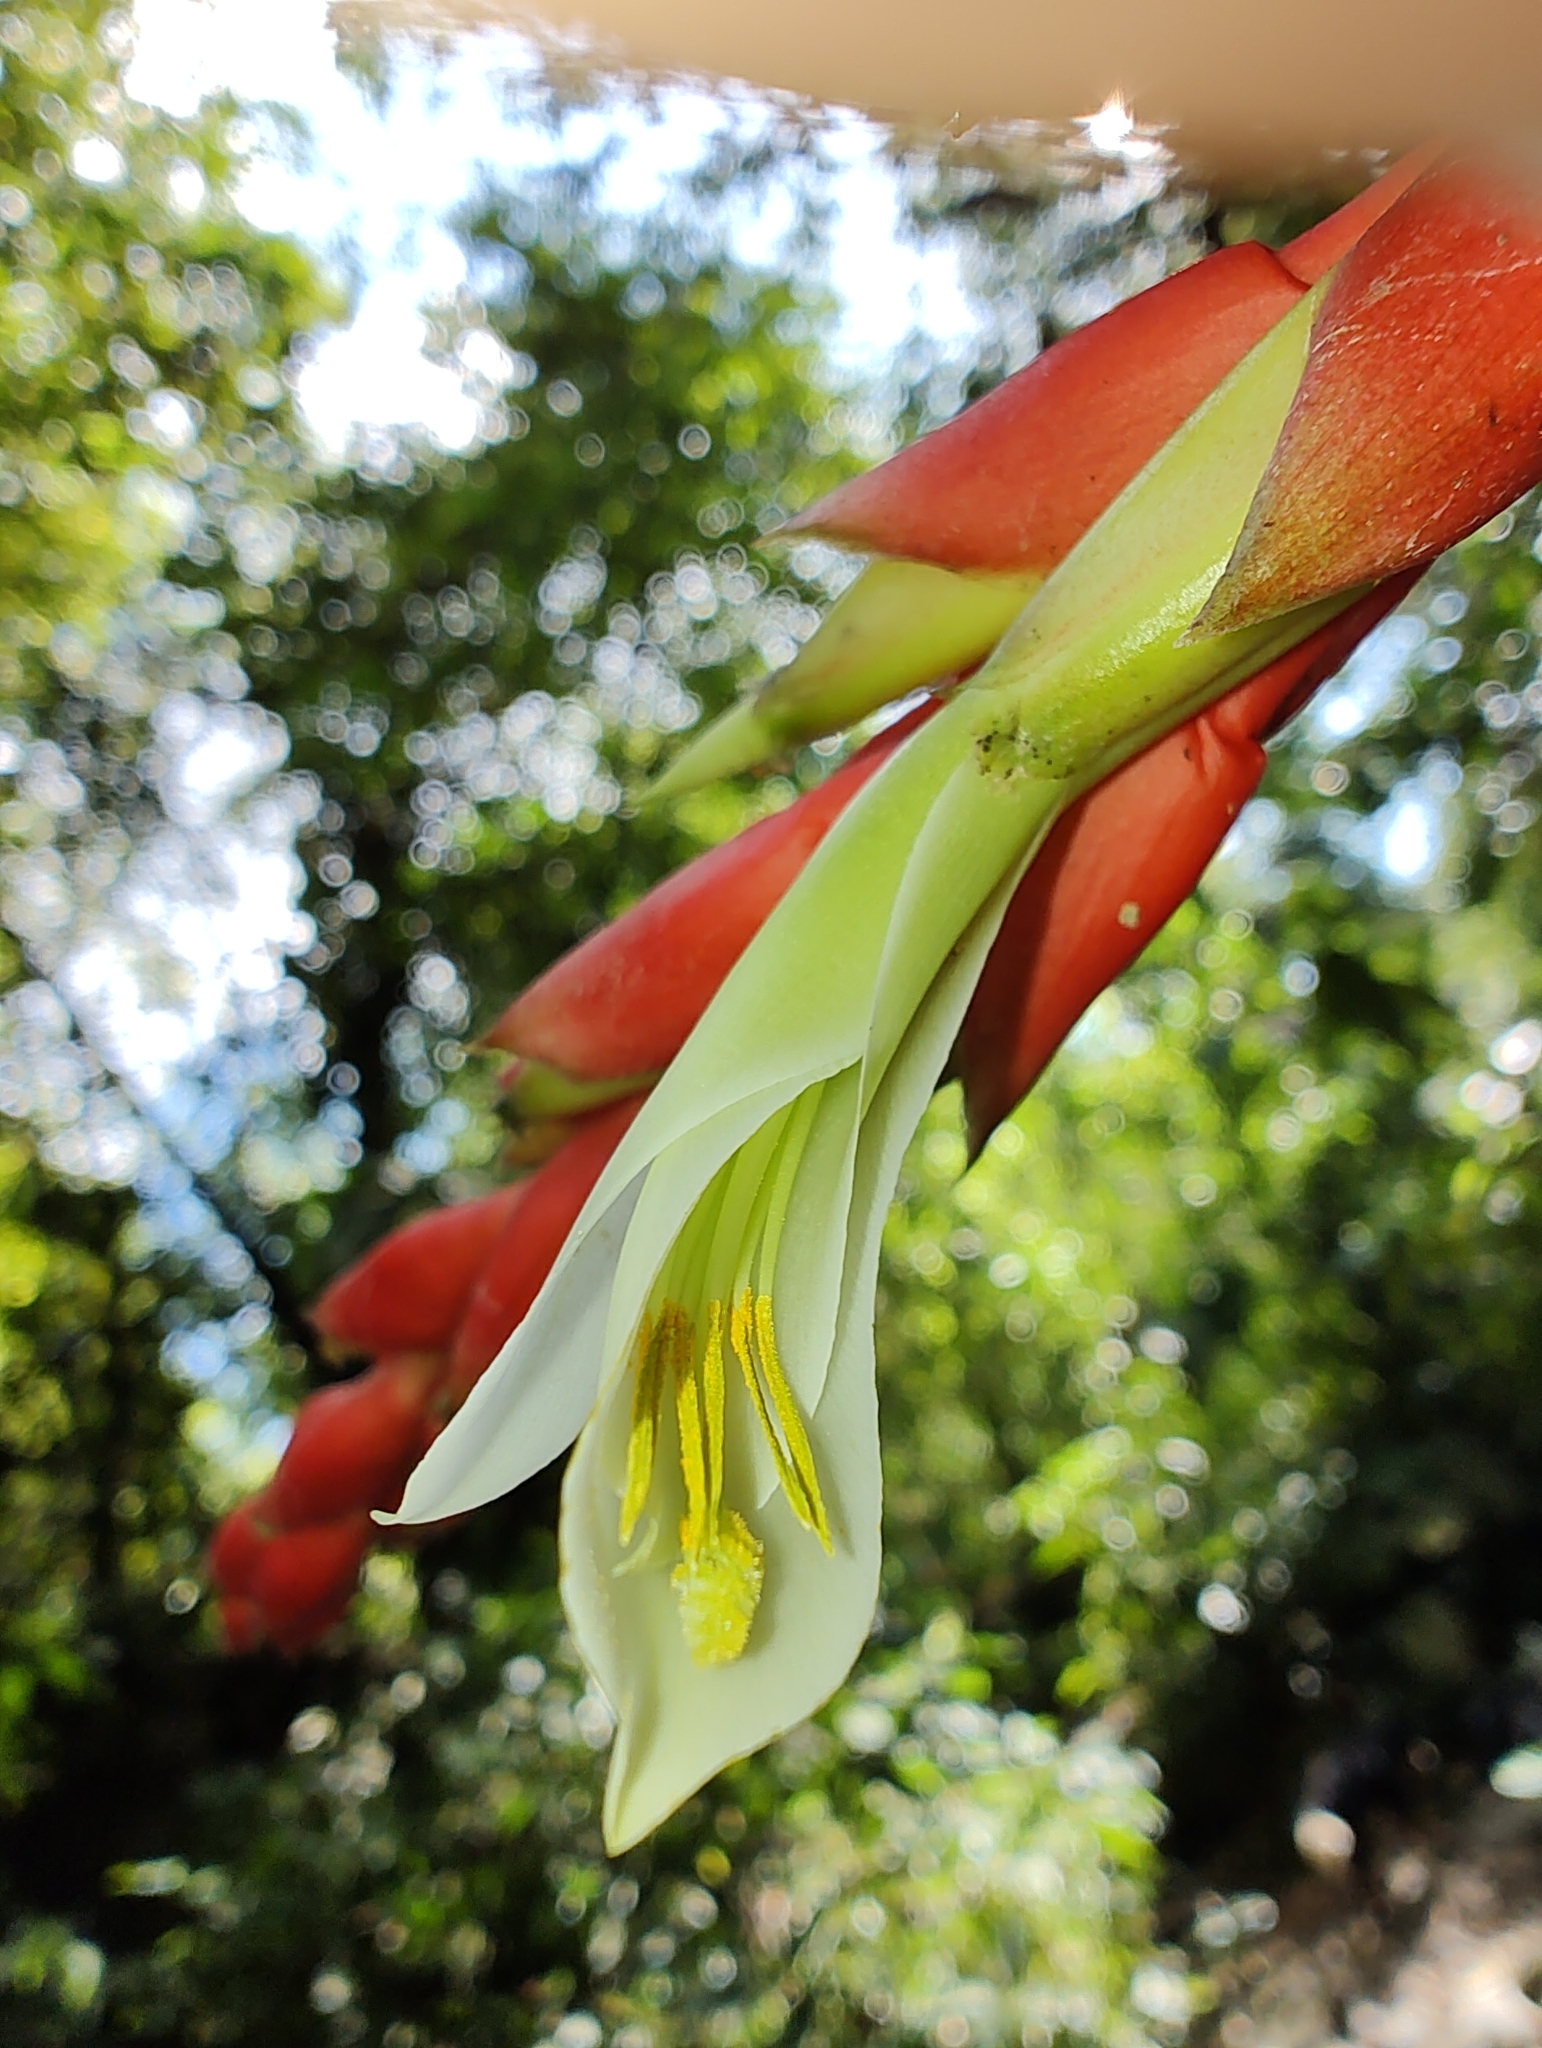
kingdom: Plantae
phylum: Tracheophyta
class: Liliopsida
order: Poales
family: Bromeliaceae
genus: Pitcairnia
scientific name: Pitcairnia maidifolia
